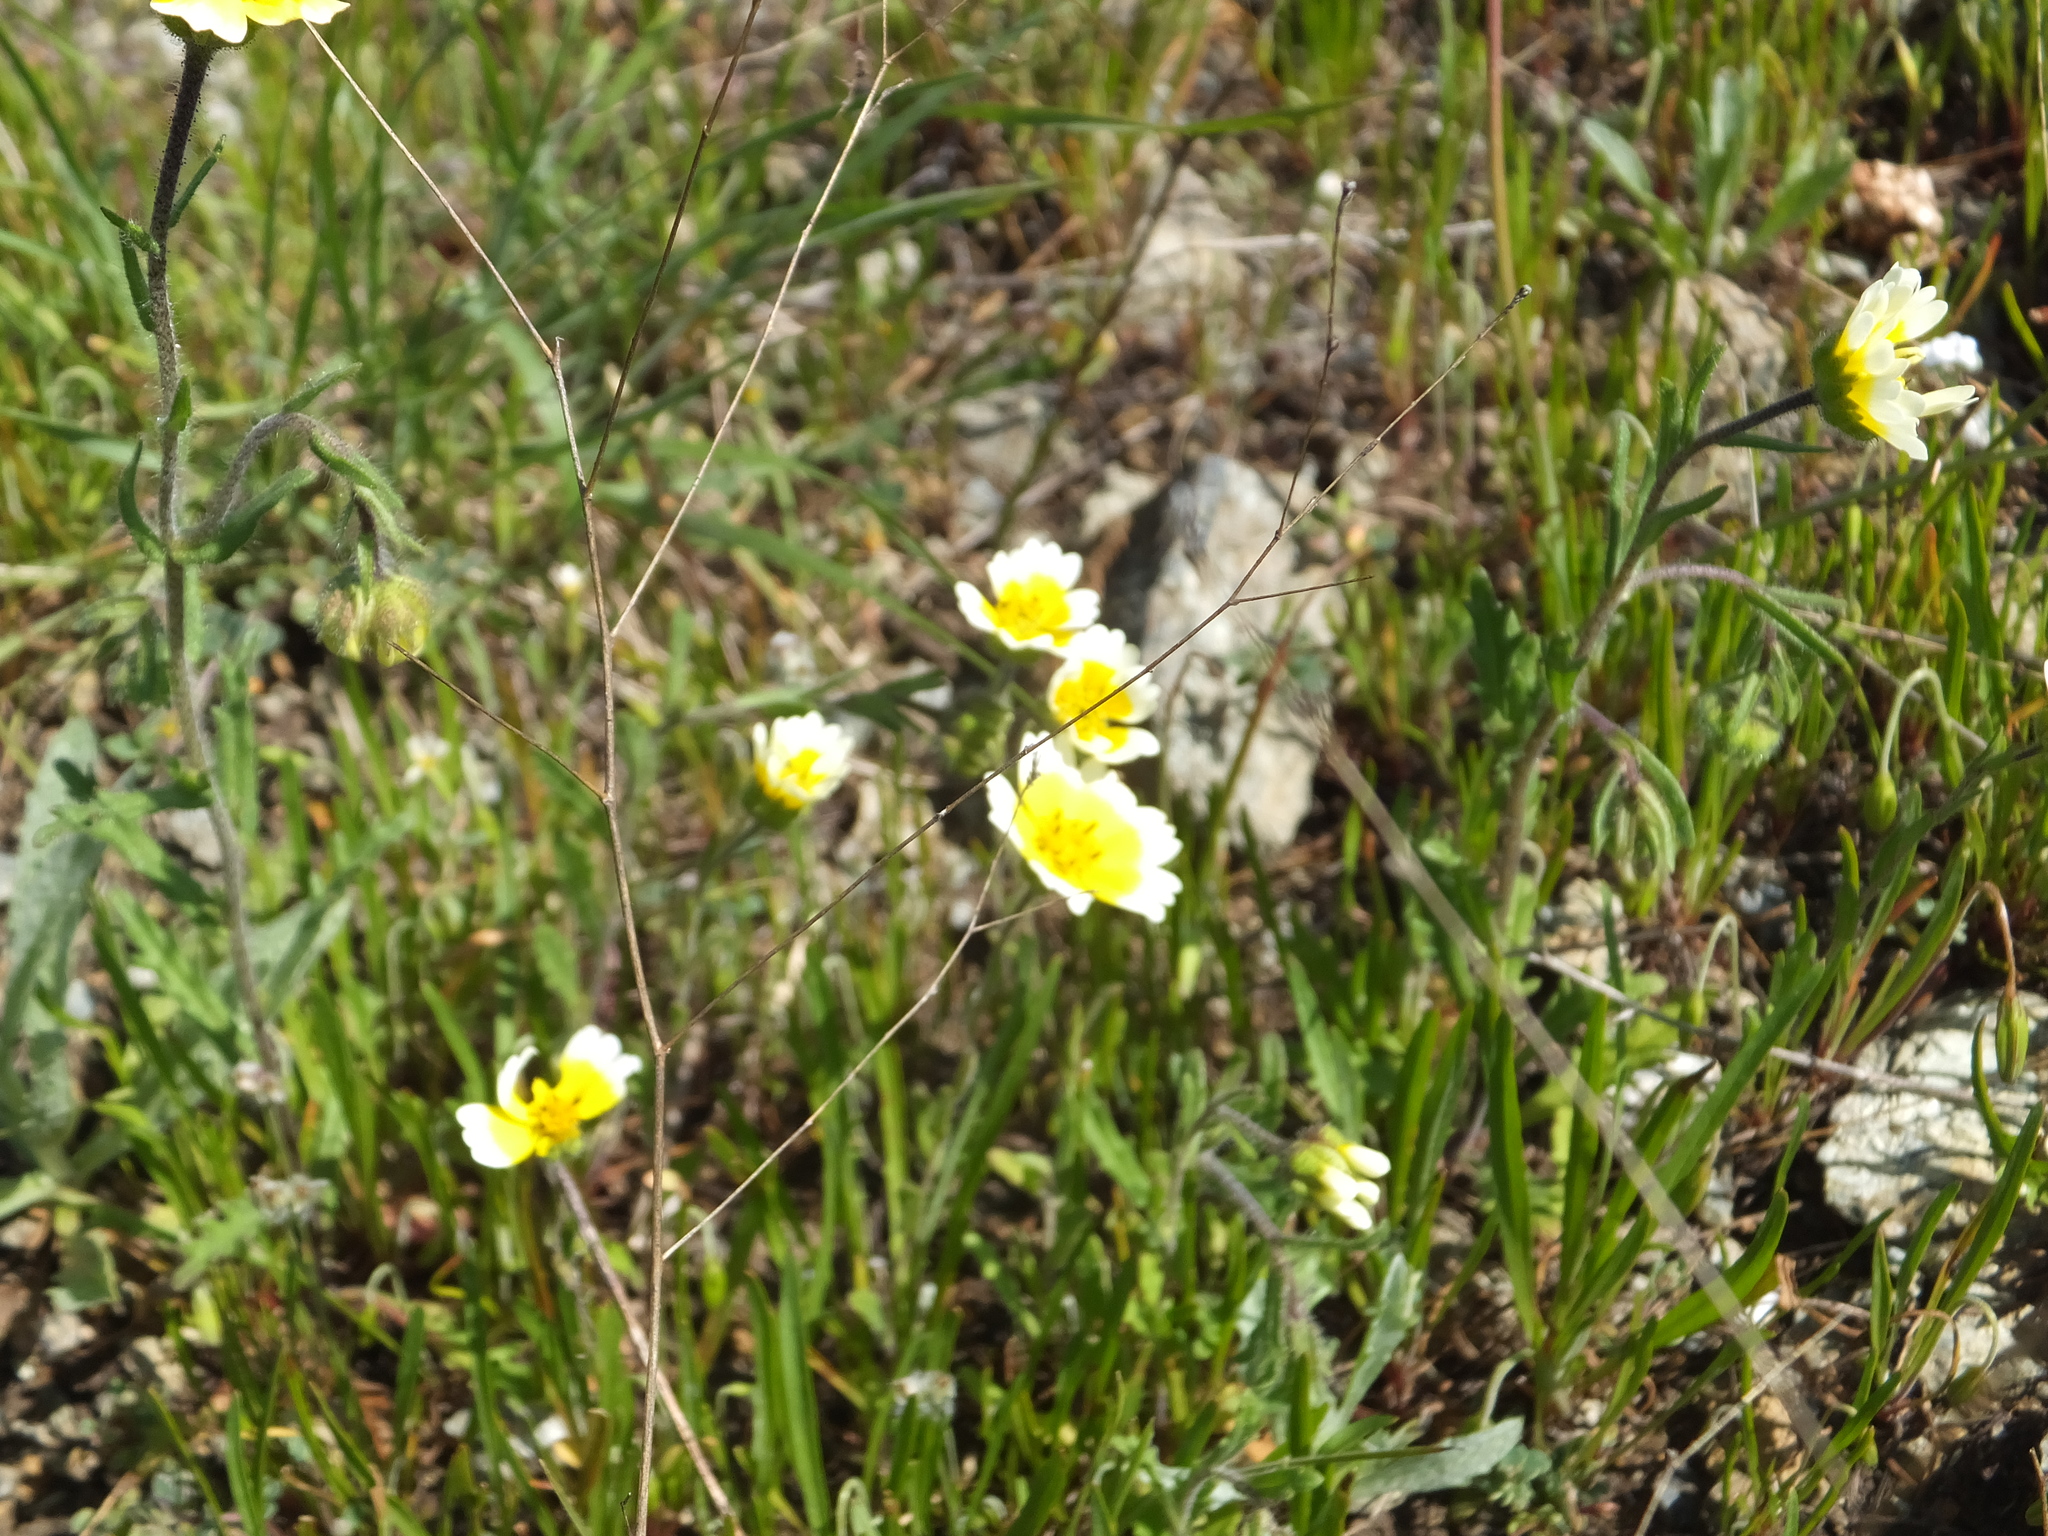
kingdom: Plantae
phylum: Tracheophyta
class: Magnoliopsida
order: Asterales
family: Asteraceae
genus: Layia
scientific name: Layia gaillardioides
